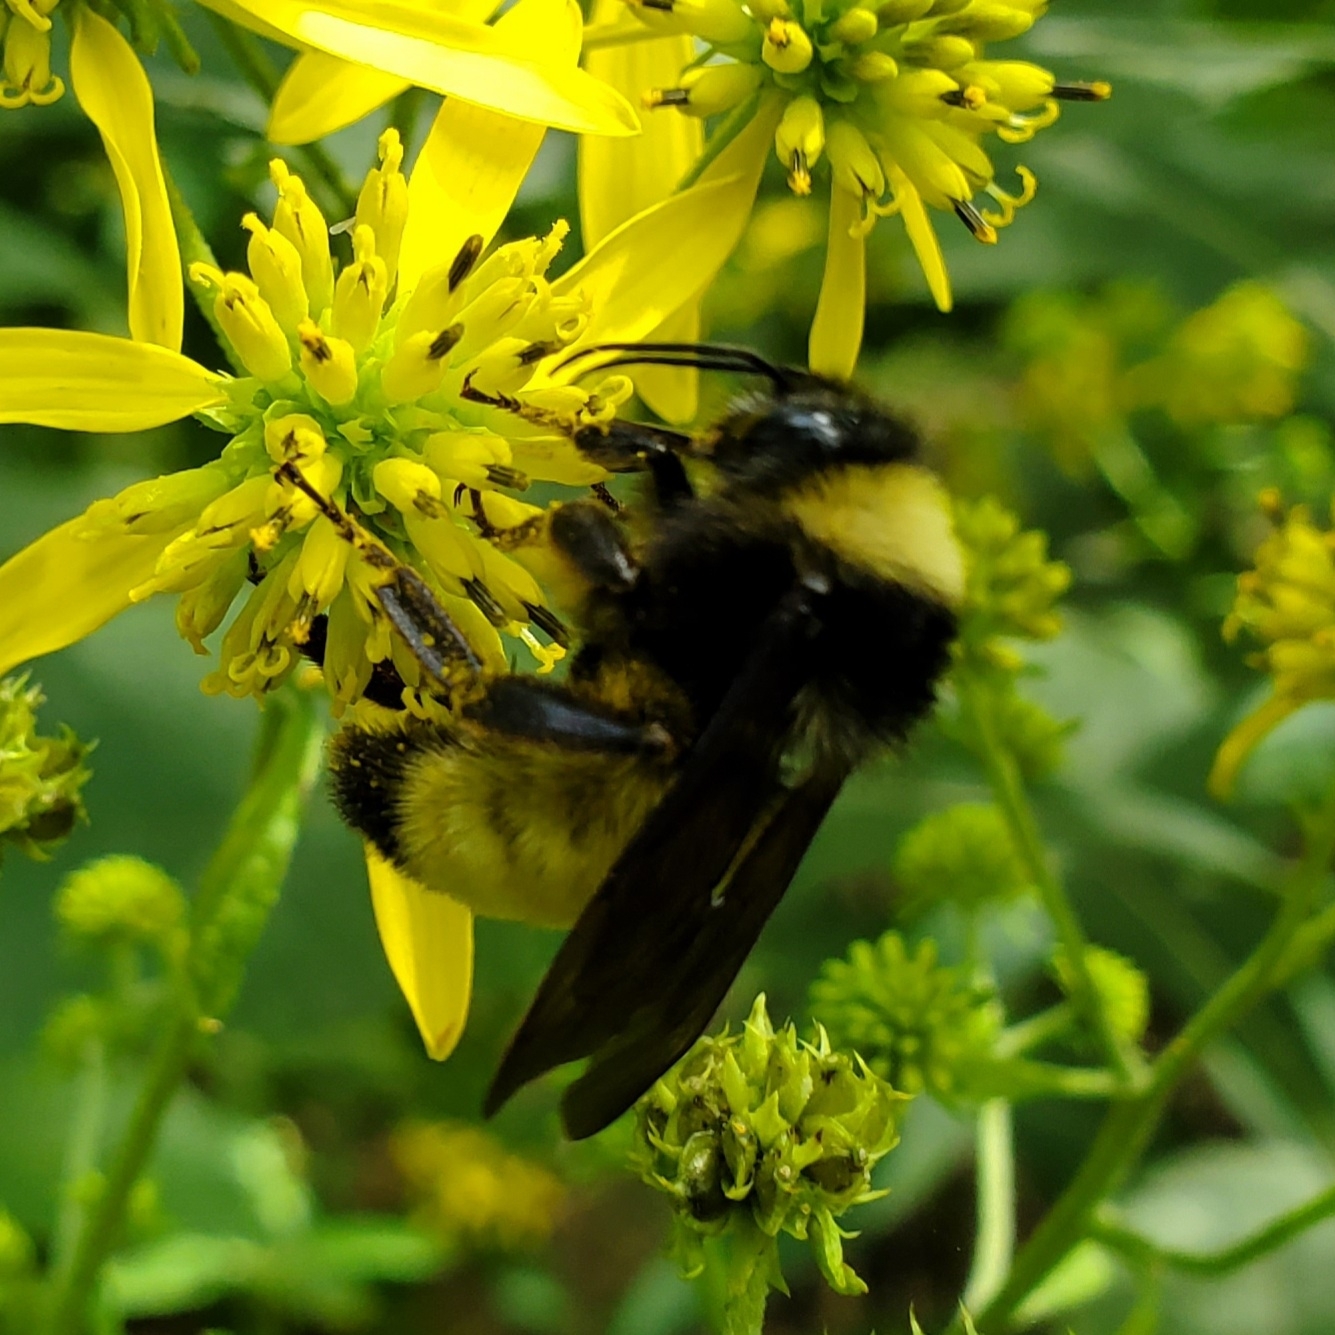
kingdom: Animalia
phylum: Arthropoda
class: Insecta
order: Hymenoptera
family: Apidae
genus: Bombus
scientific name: Bombus pensylvanicus
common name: Bumble bee
